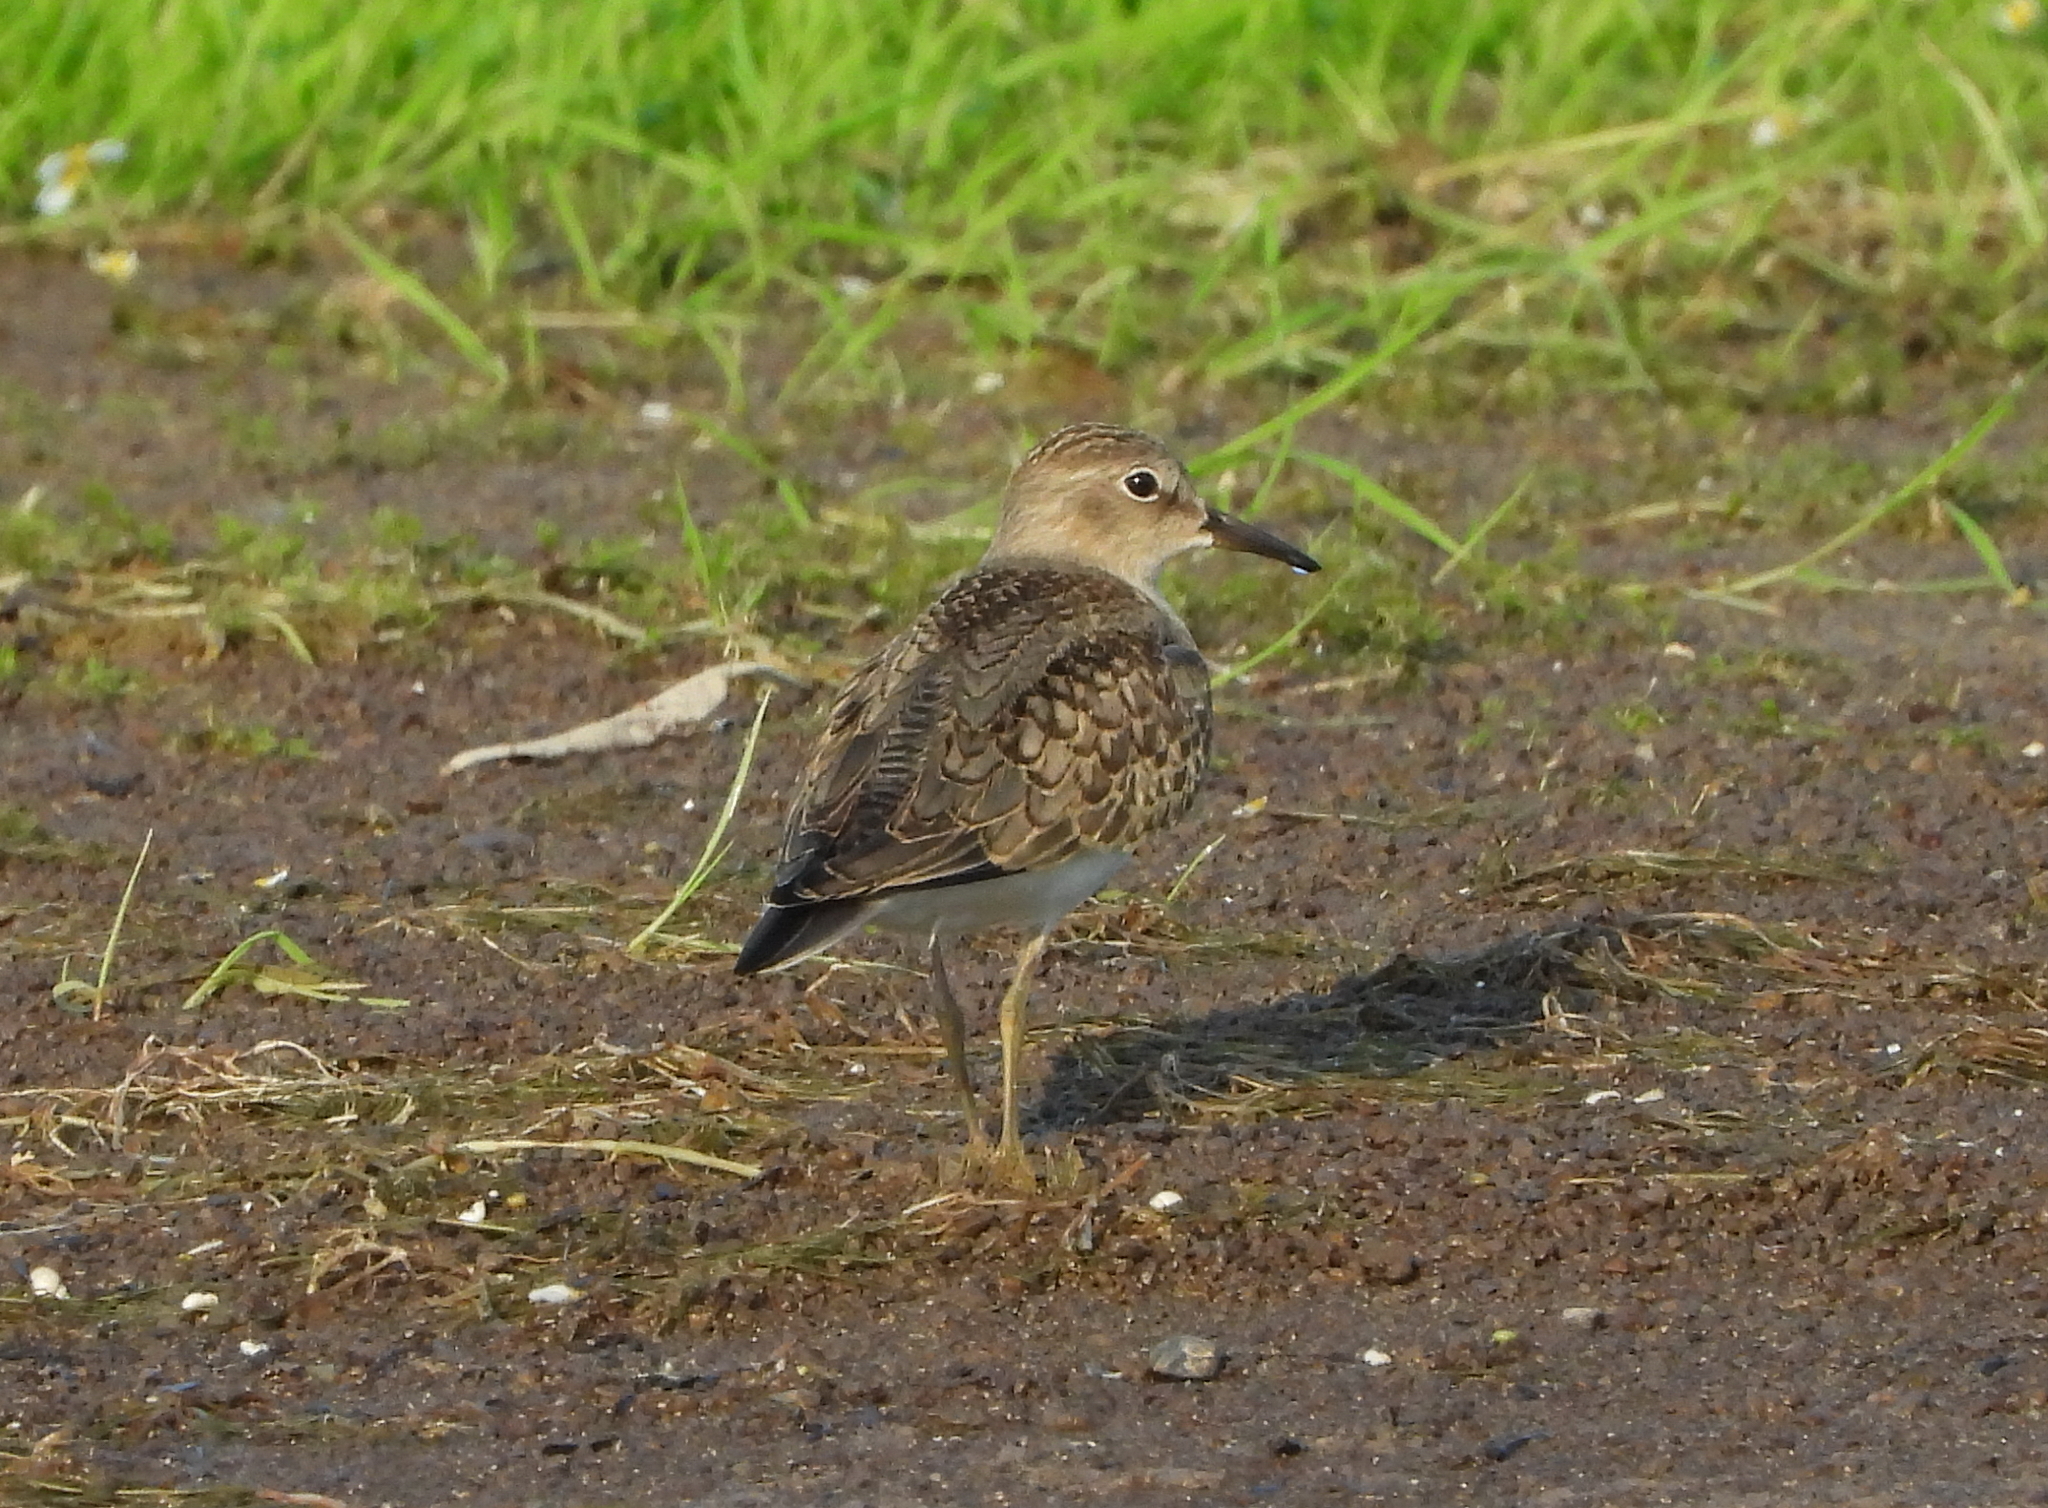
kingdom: Animalia
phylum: Chordata
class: Aves
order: Charadriiformes
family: Scolopacidae
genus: Calidris
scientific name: Calidris temminckii
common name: Temminck's stint
